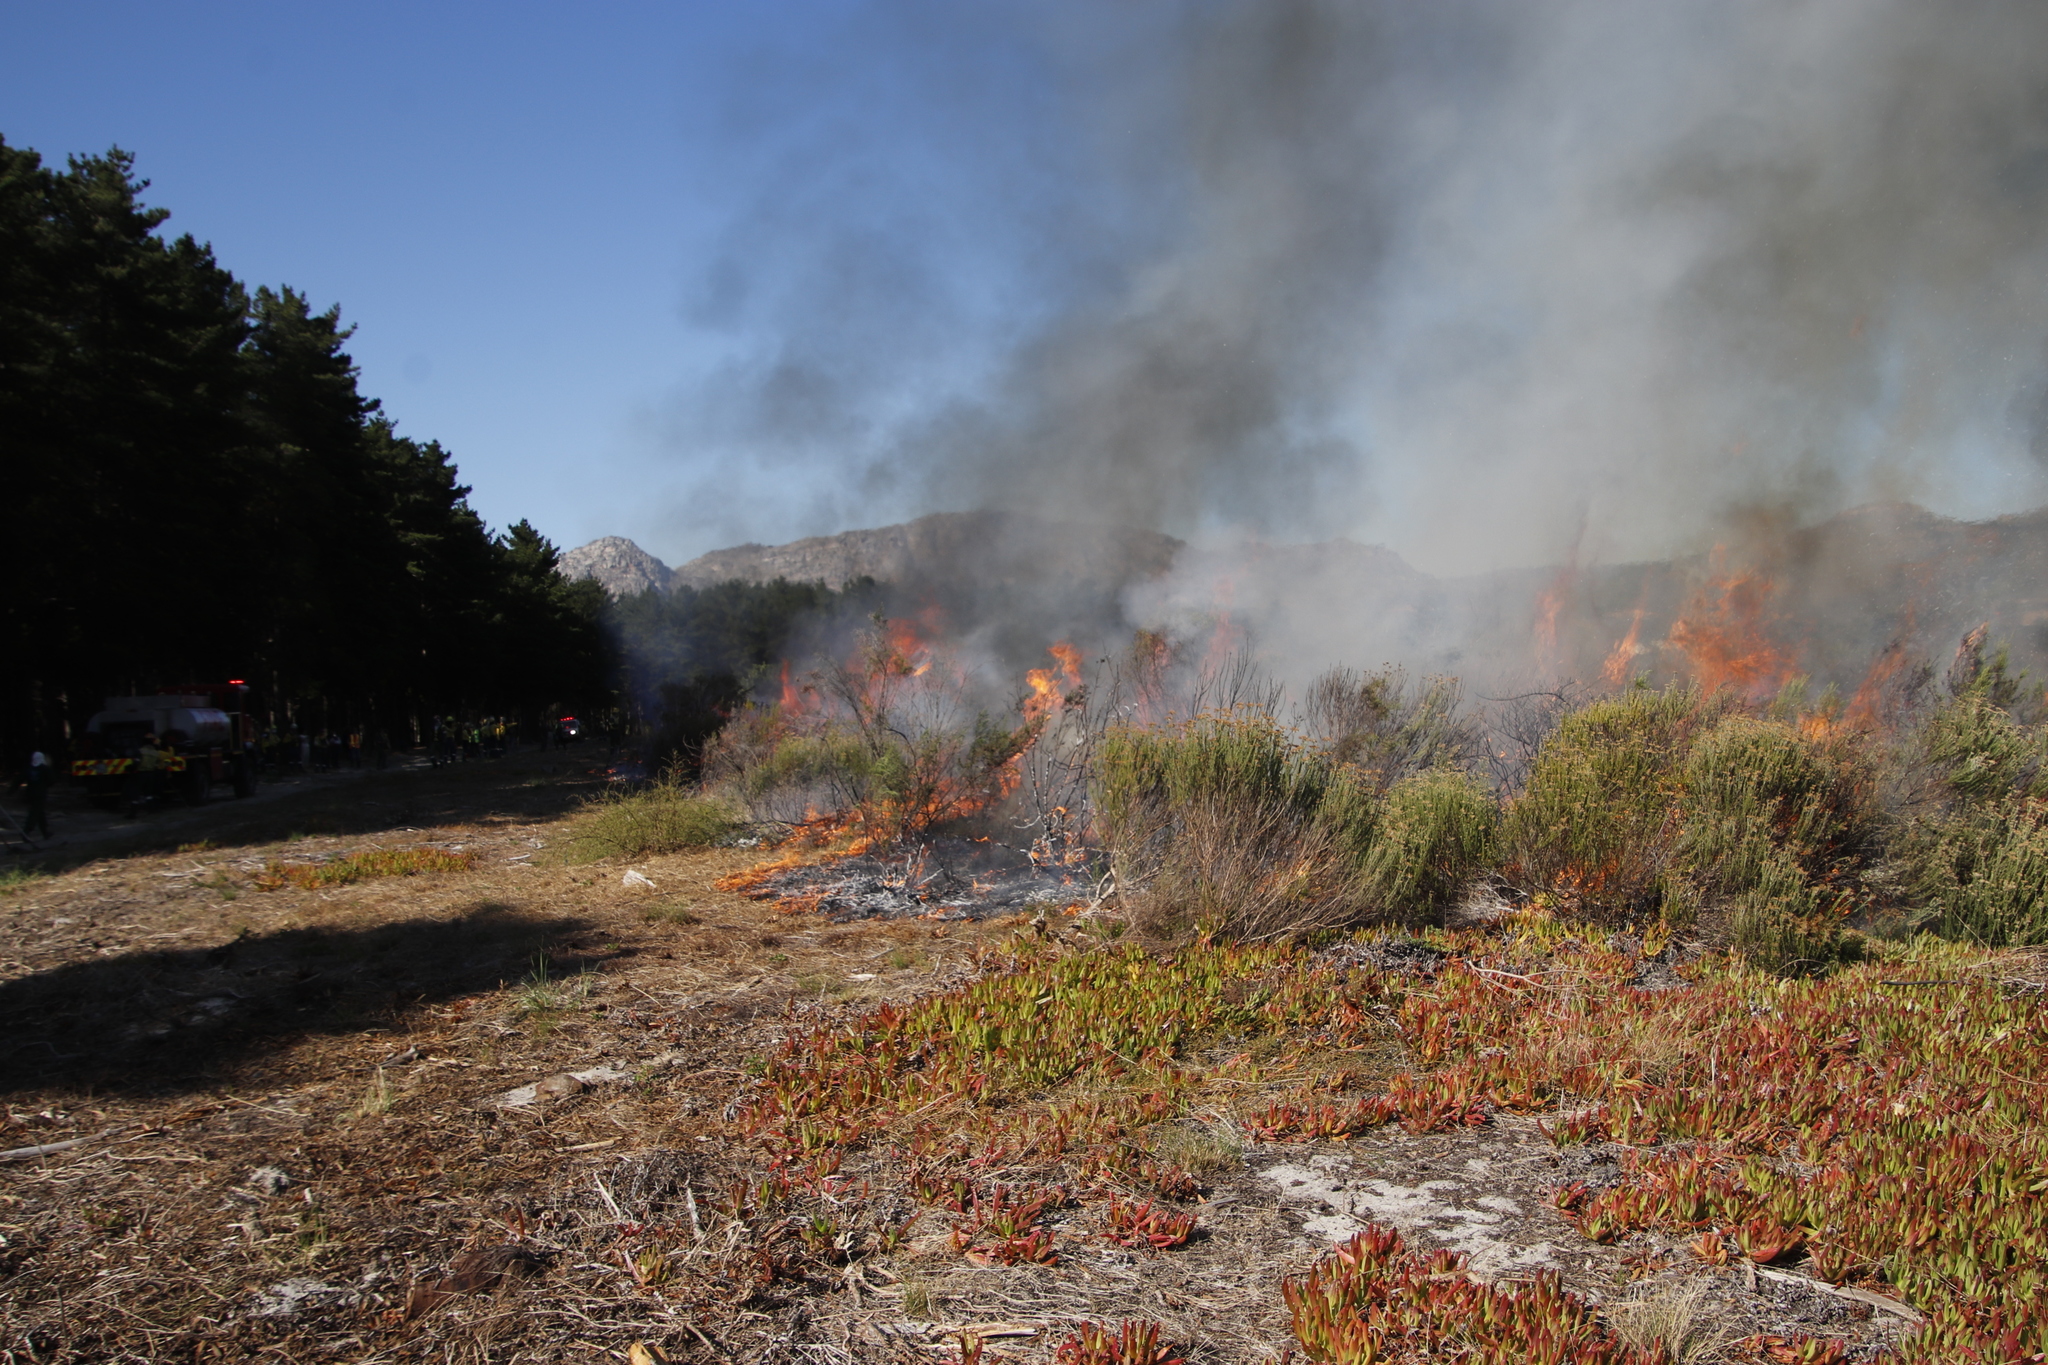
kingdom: Plantae
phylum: Tracheophyta
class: Magnoliopsida
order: Asterales
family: Asteraceae
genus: Metalasia
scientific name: Metalasia densa
